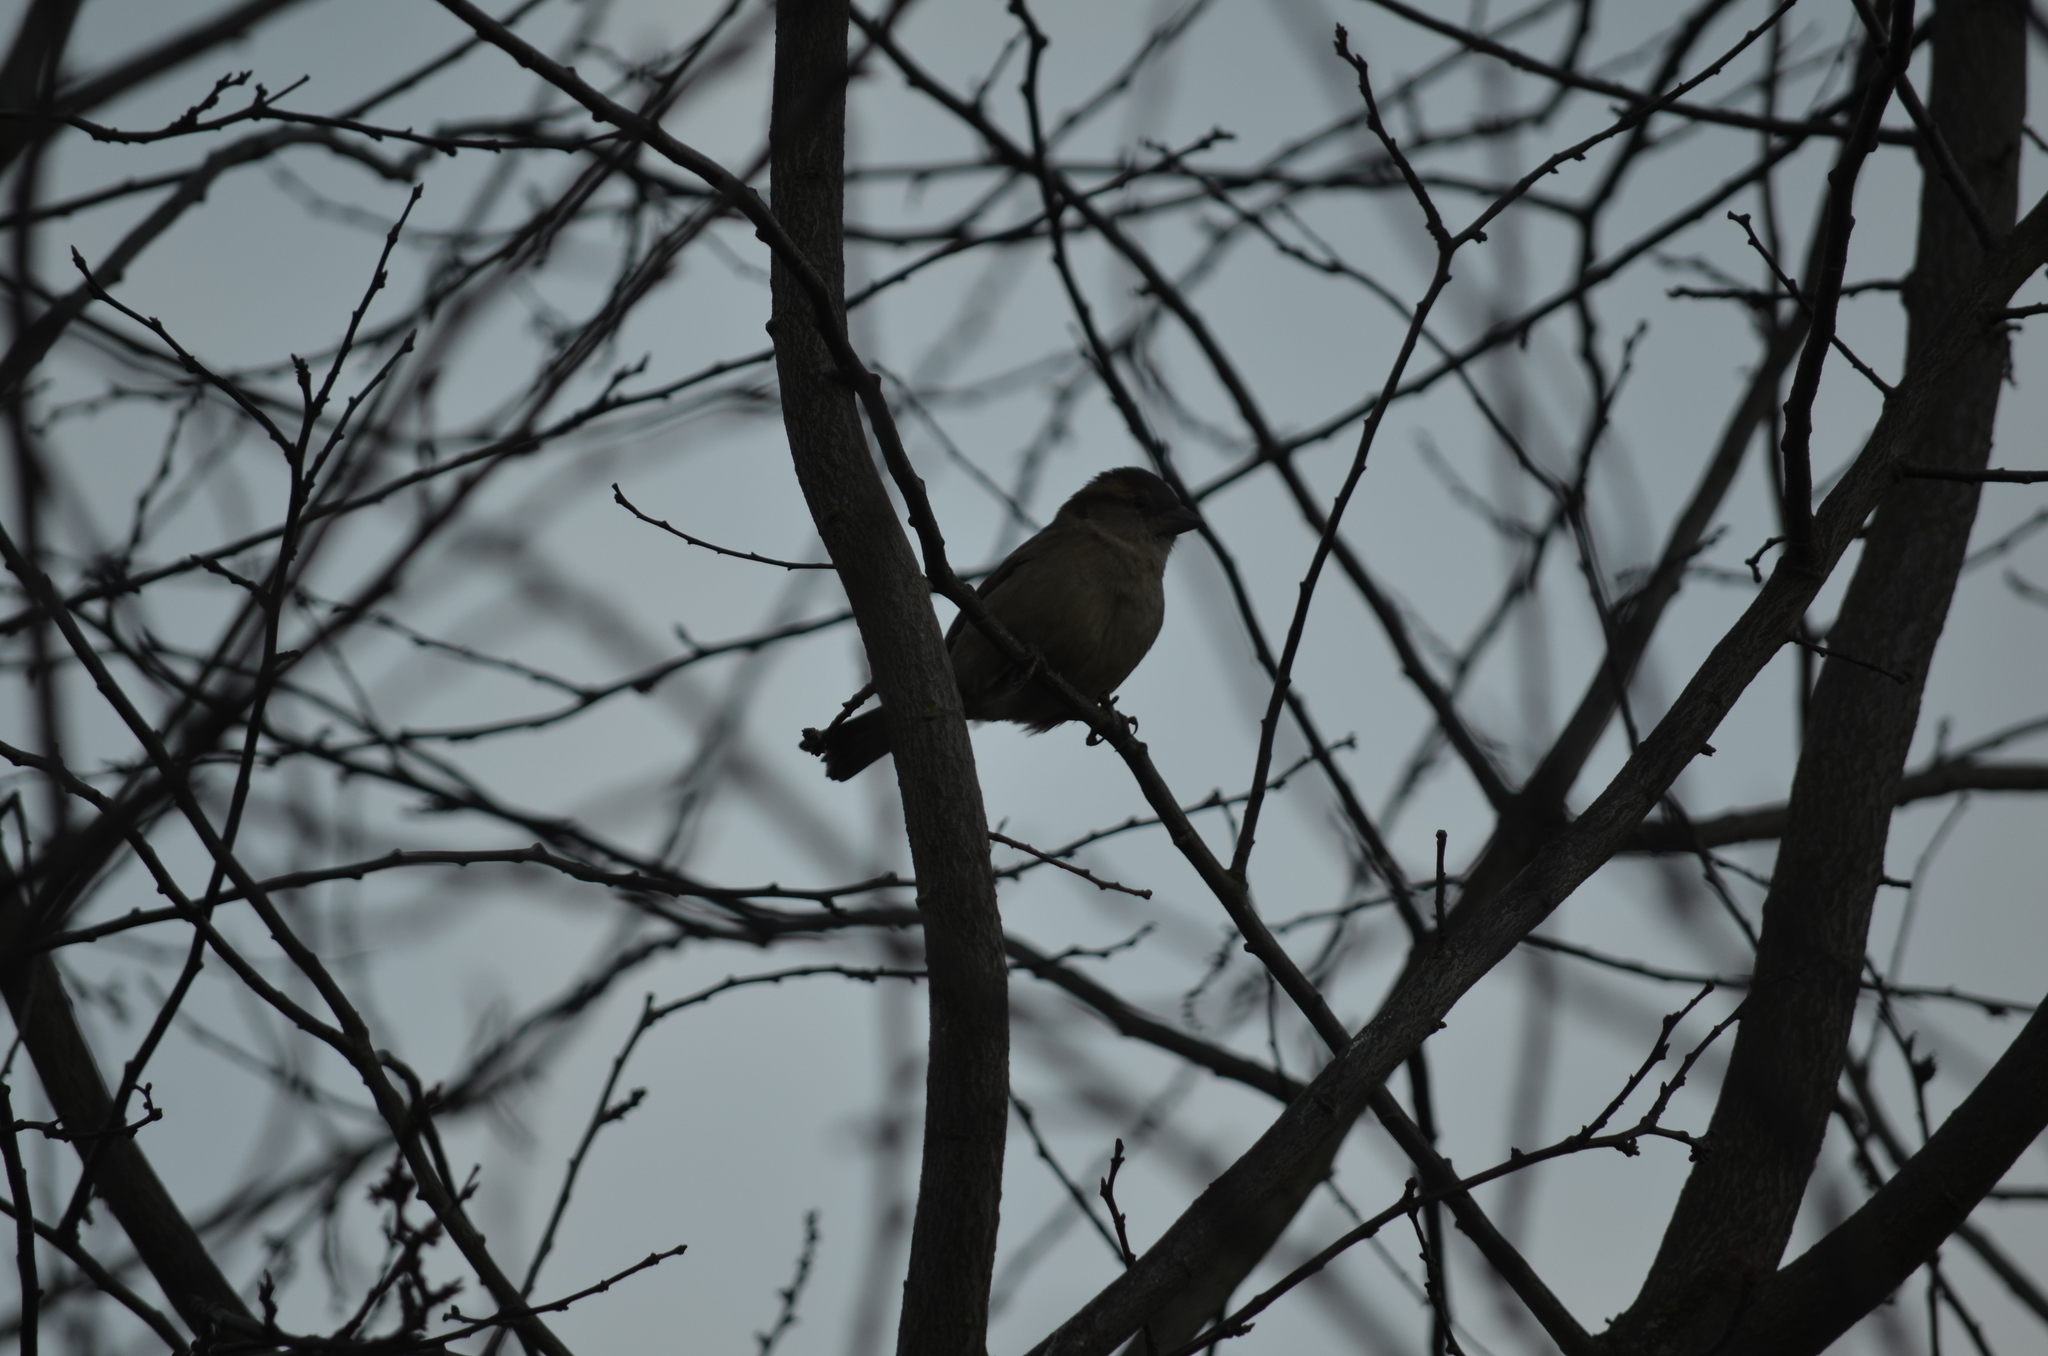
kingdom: Animalia
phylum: Chordata
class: Aves
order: Passeriformes
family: Passeridae
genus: Passer
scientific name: Passer domesticus
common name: House sparrow
